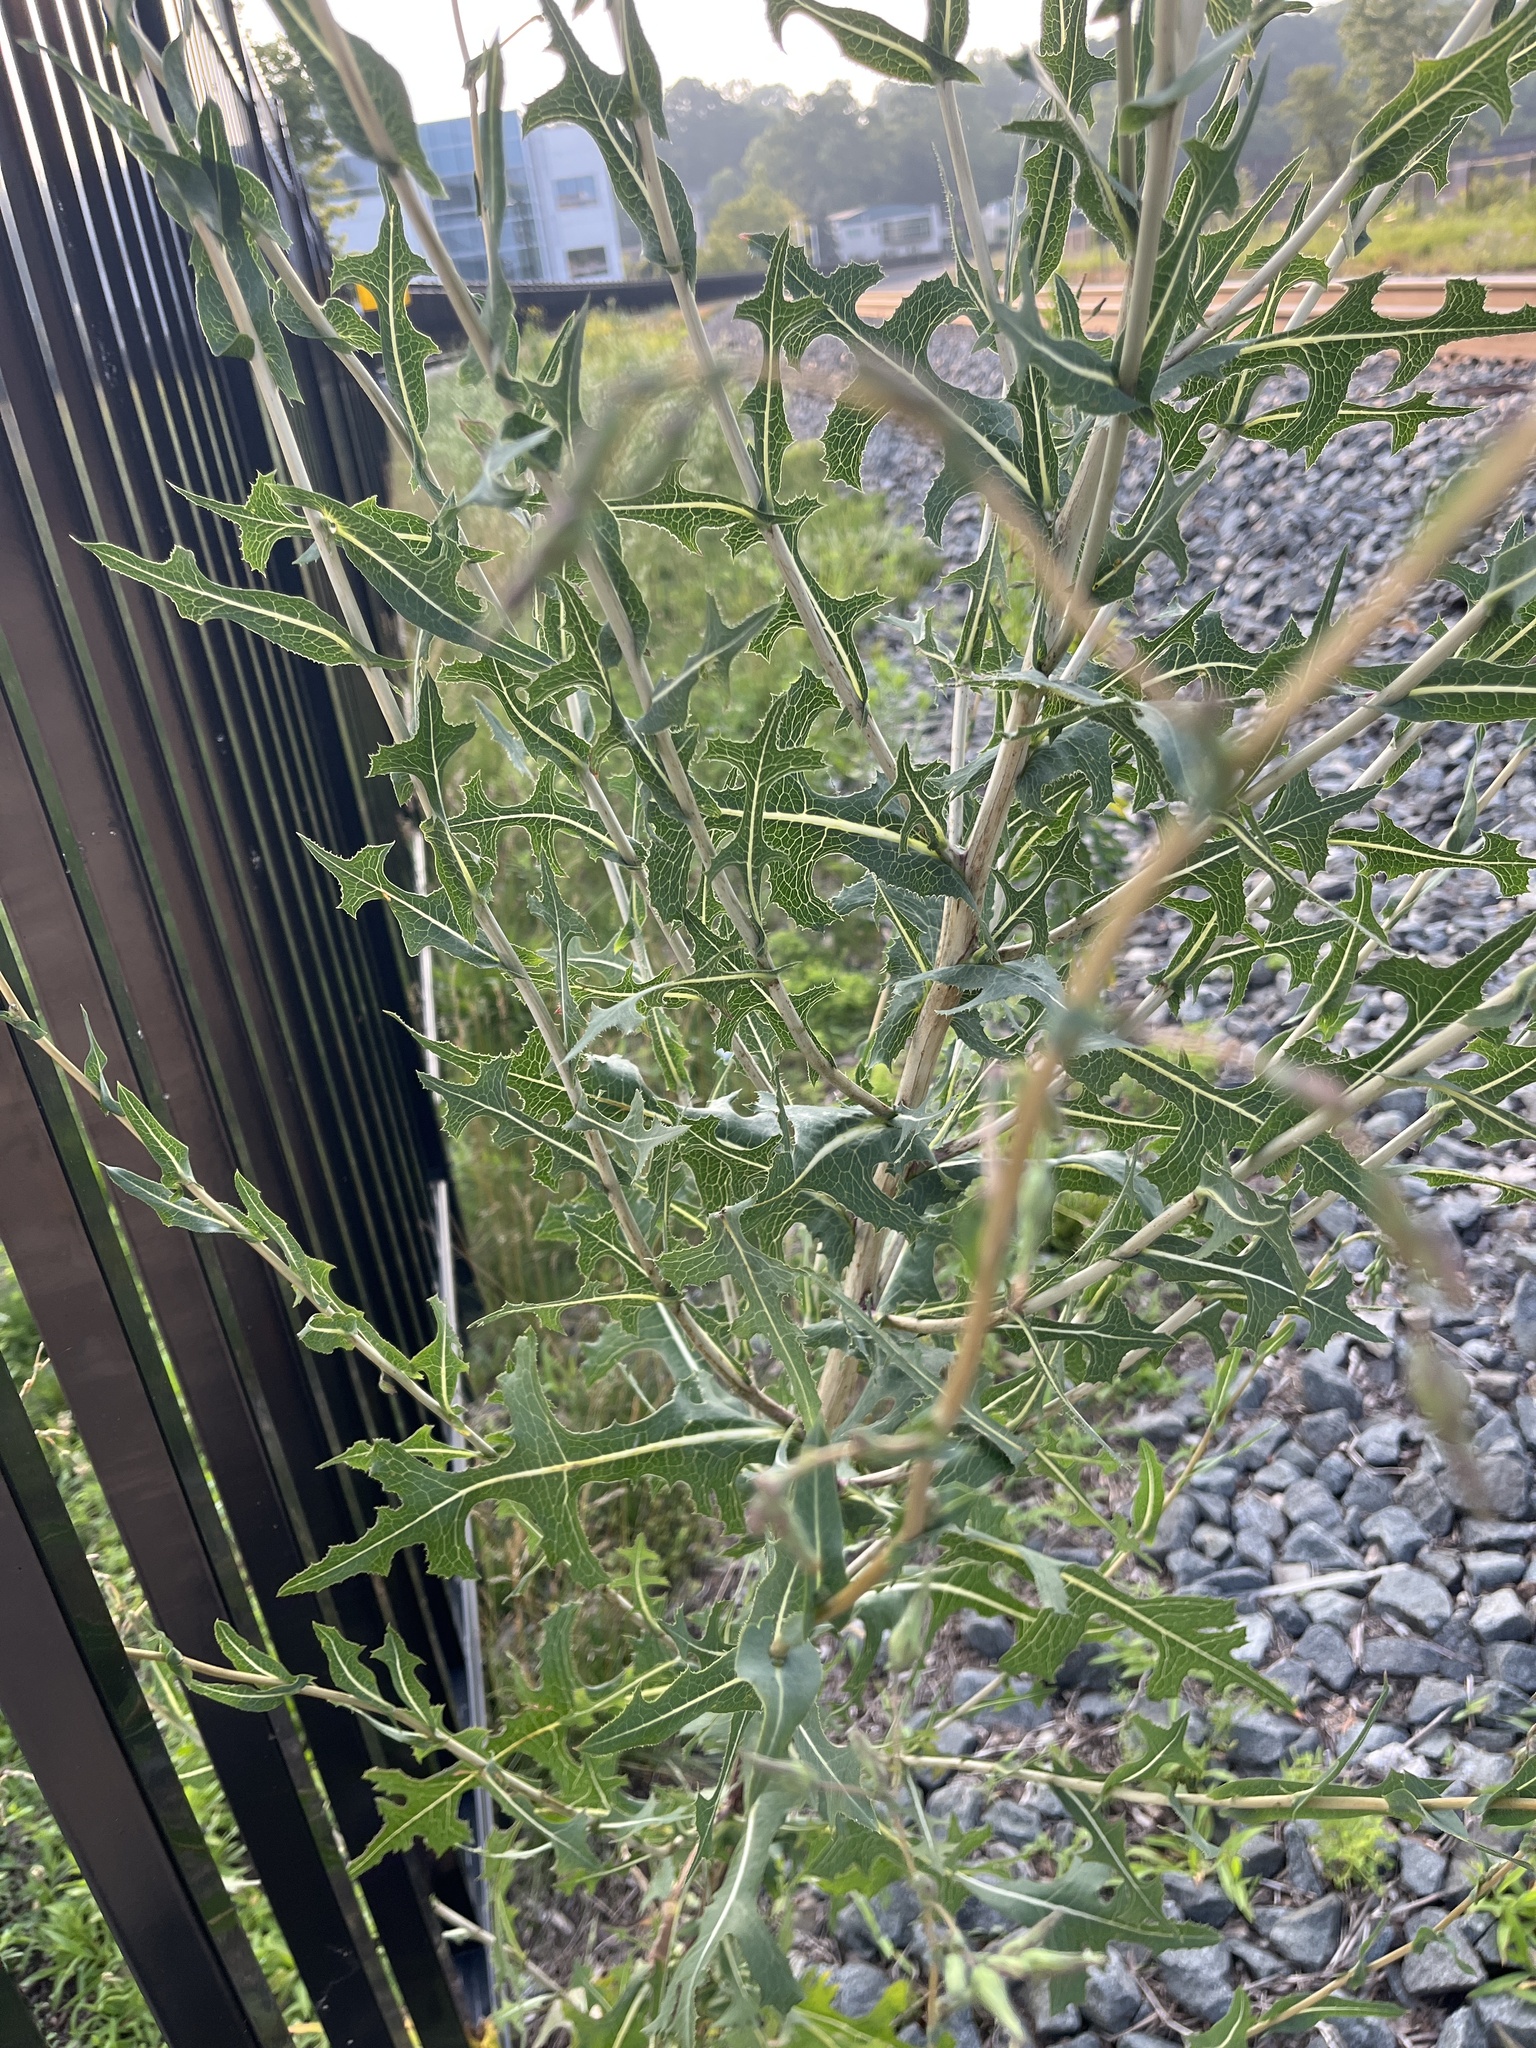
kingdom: Plantae
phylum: Tracheophyta
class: Magnoliopsida
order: Asterales
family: Asteraceae
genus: Lactuca
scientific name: Lactuca serriola
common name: Prickly lettuce
